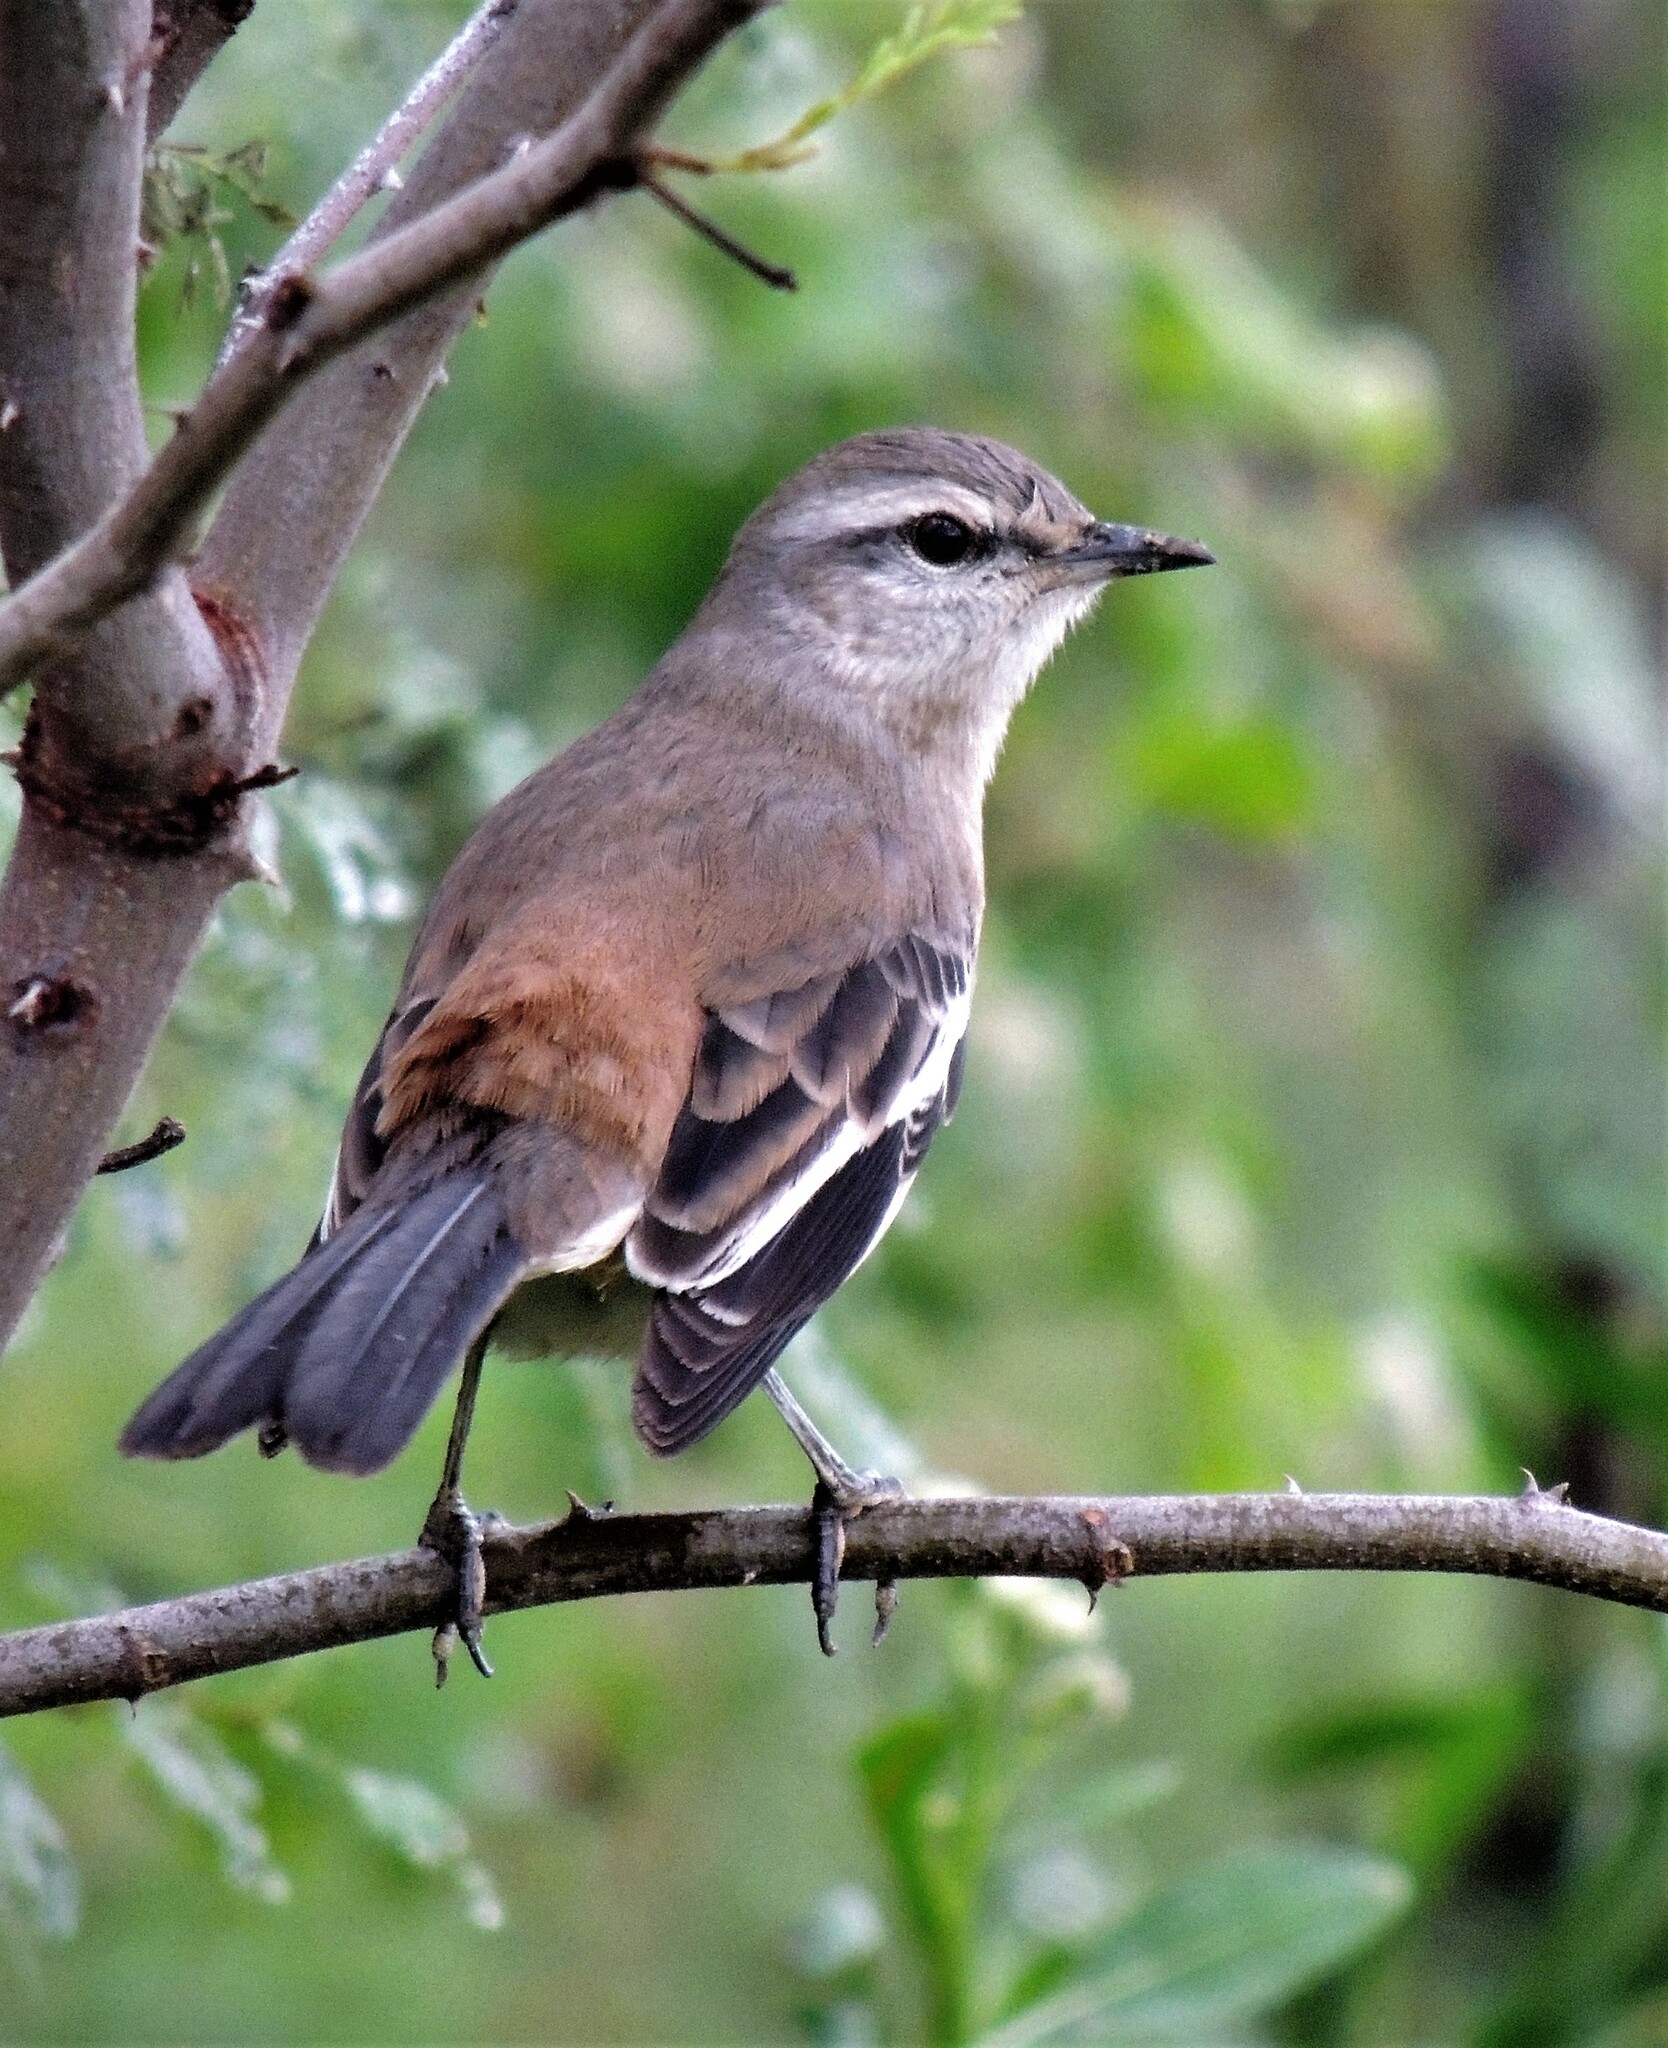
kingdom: Animalia
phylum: Chordata
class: Aves
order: Passeriformes
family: Mimidae
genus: Mimus
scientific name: Mimus triurus
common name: White-banded mockingbird
